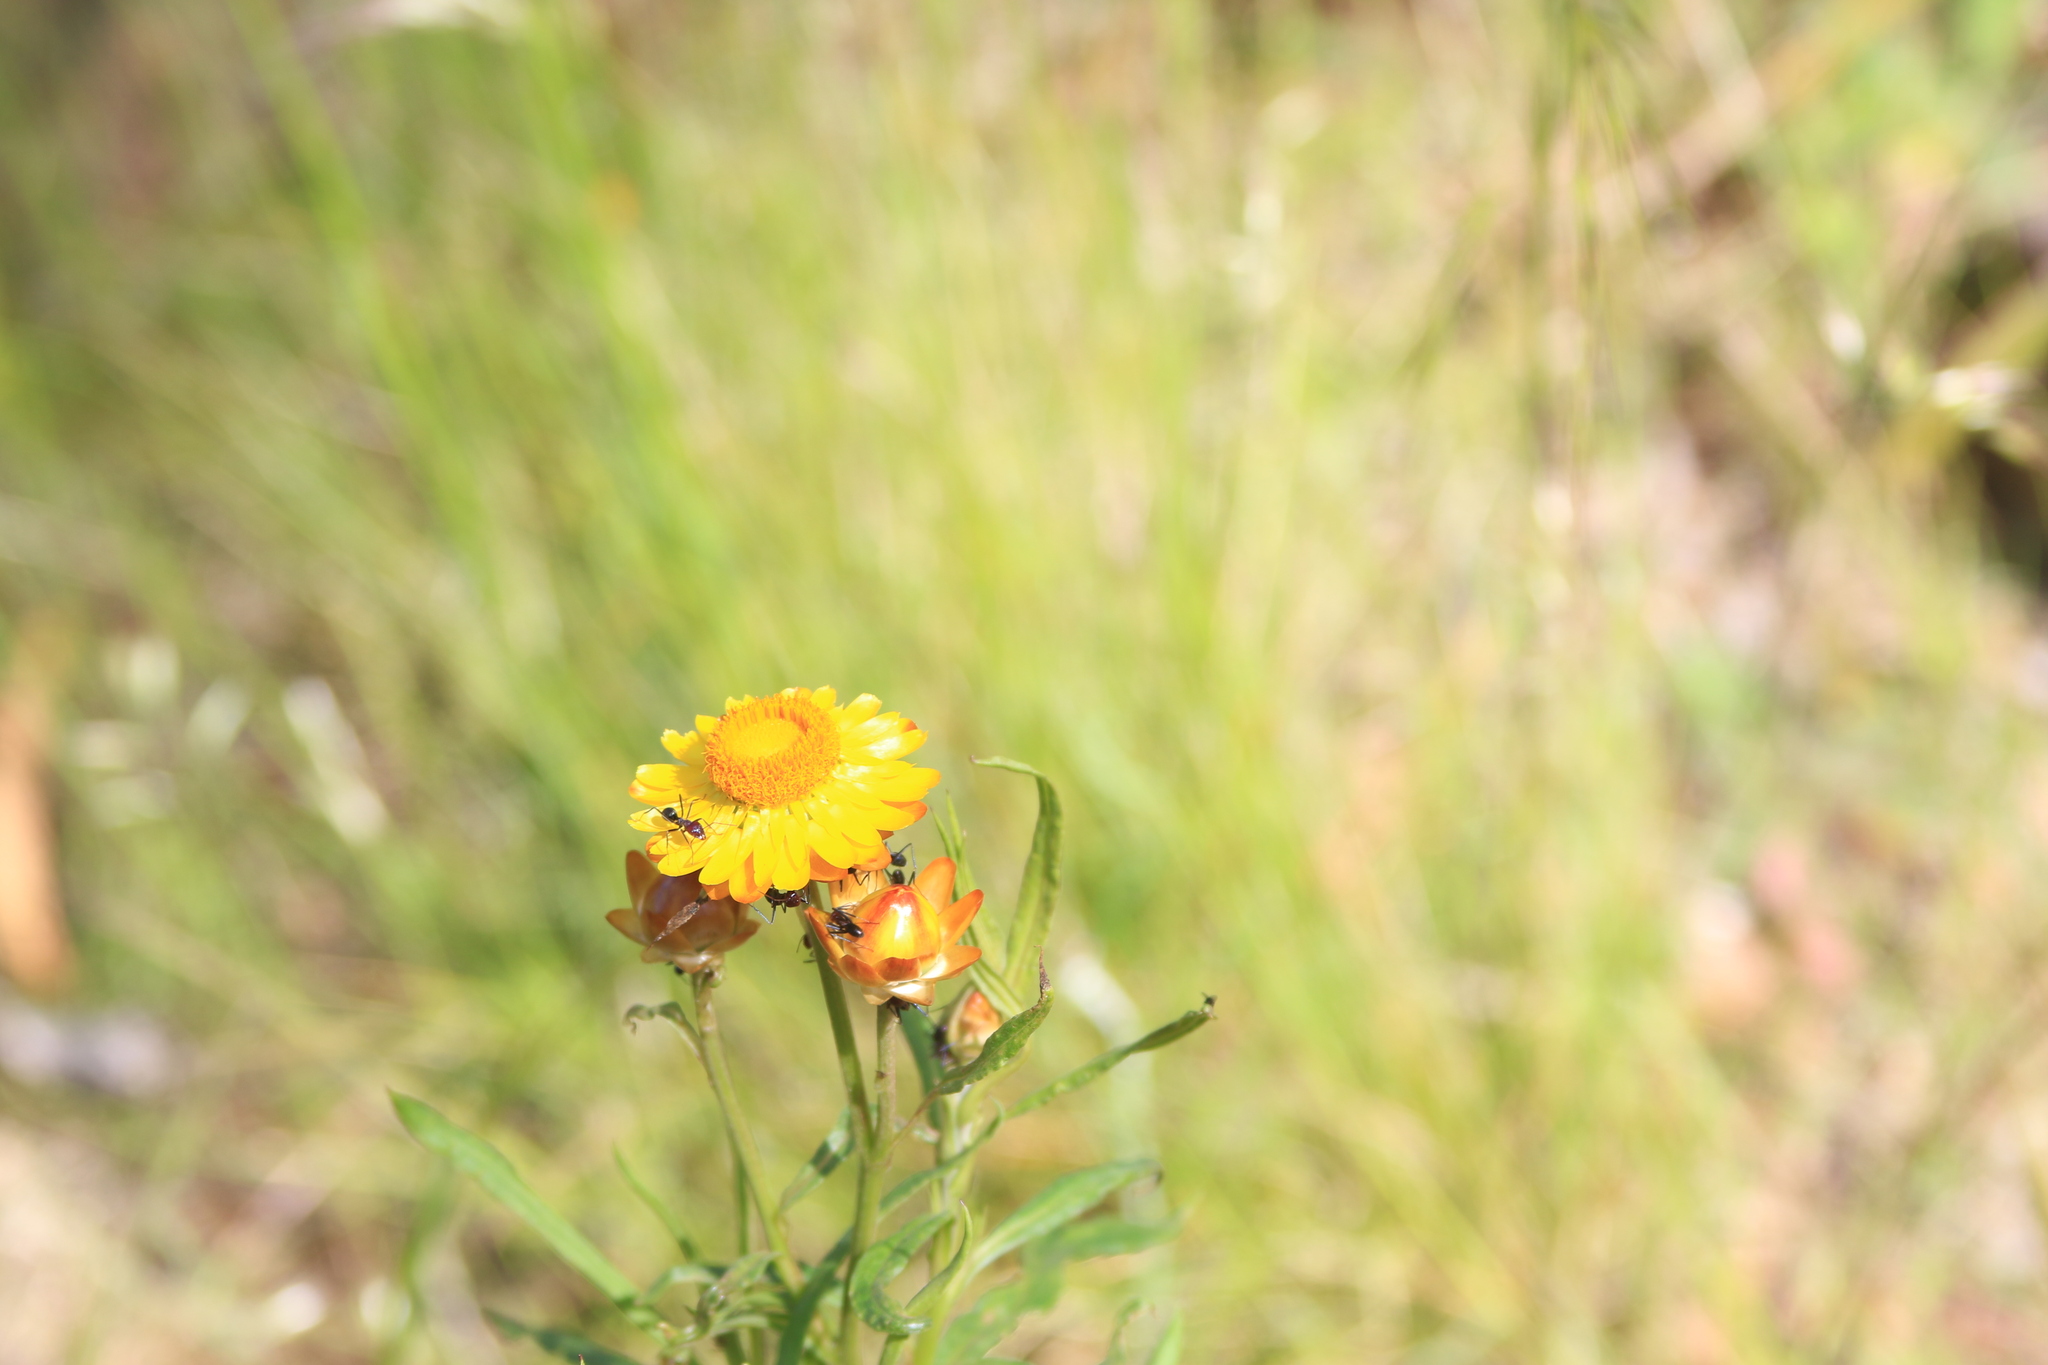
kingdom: Animalia
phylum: Arthropoda
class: Insecta
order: Hymenoptera
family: Formicidae
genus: Iridomyrmex
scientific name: Iridomyrmex purpureus
